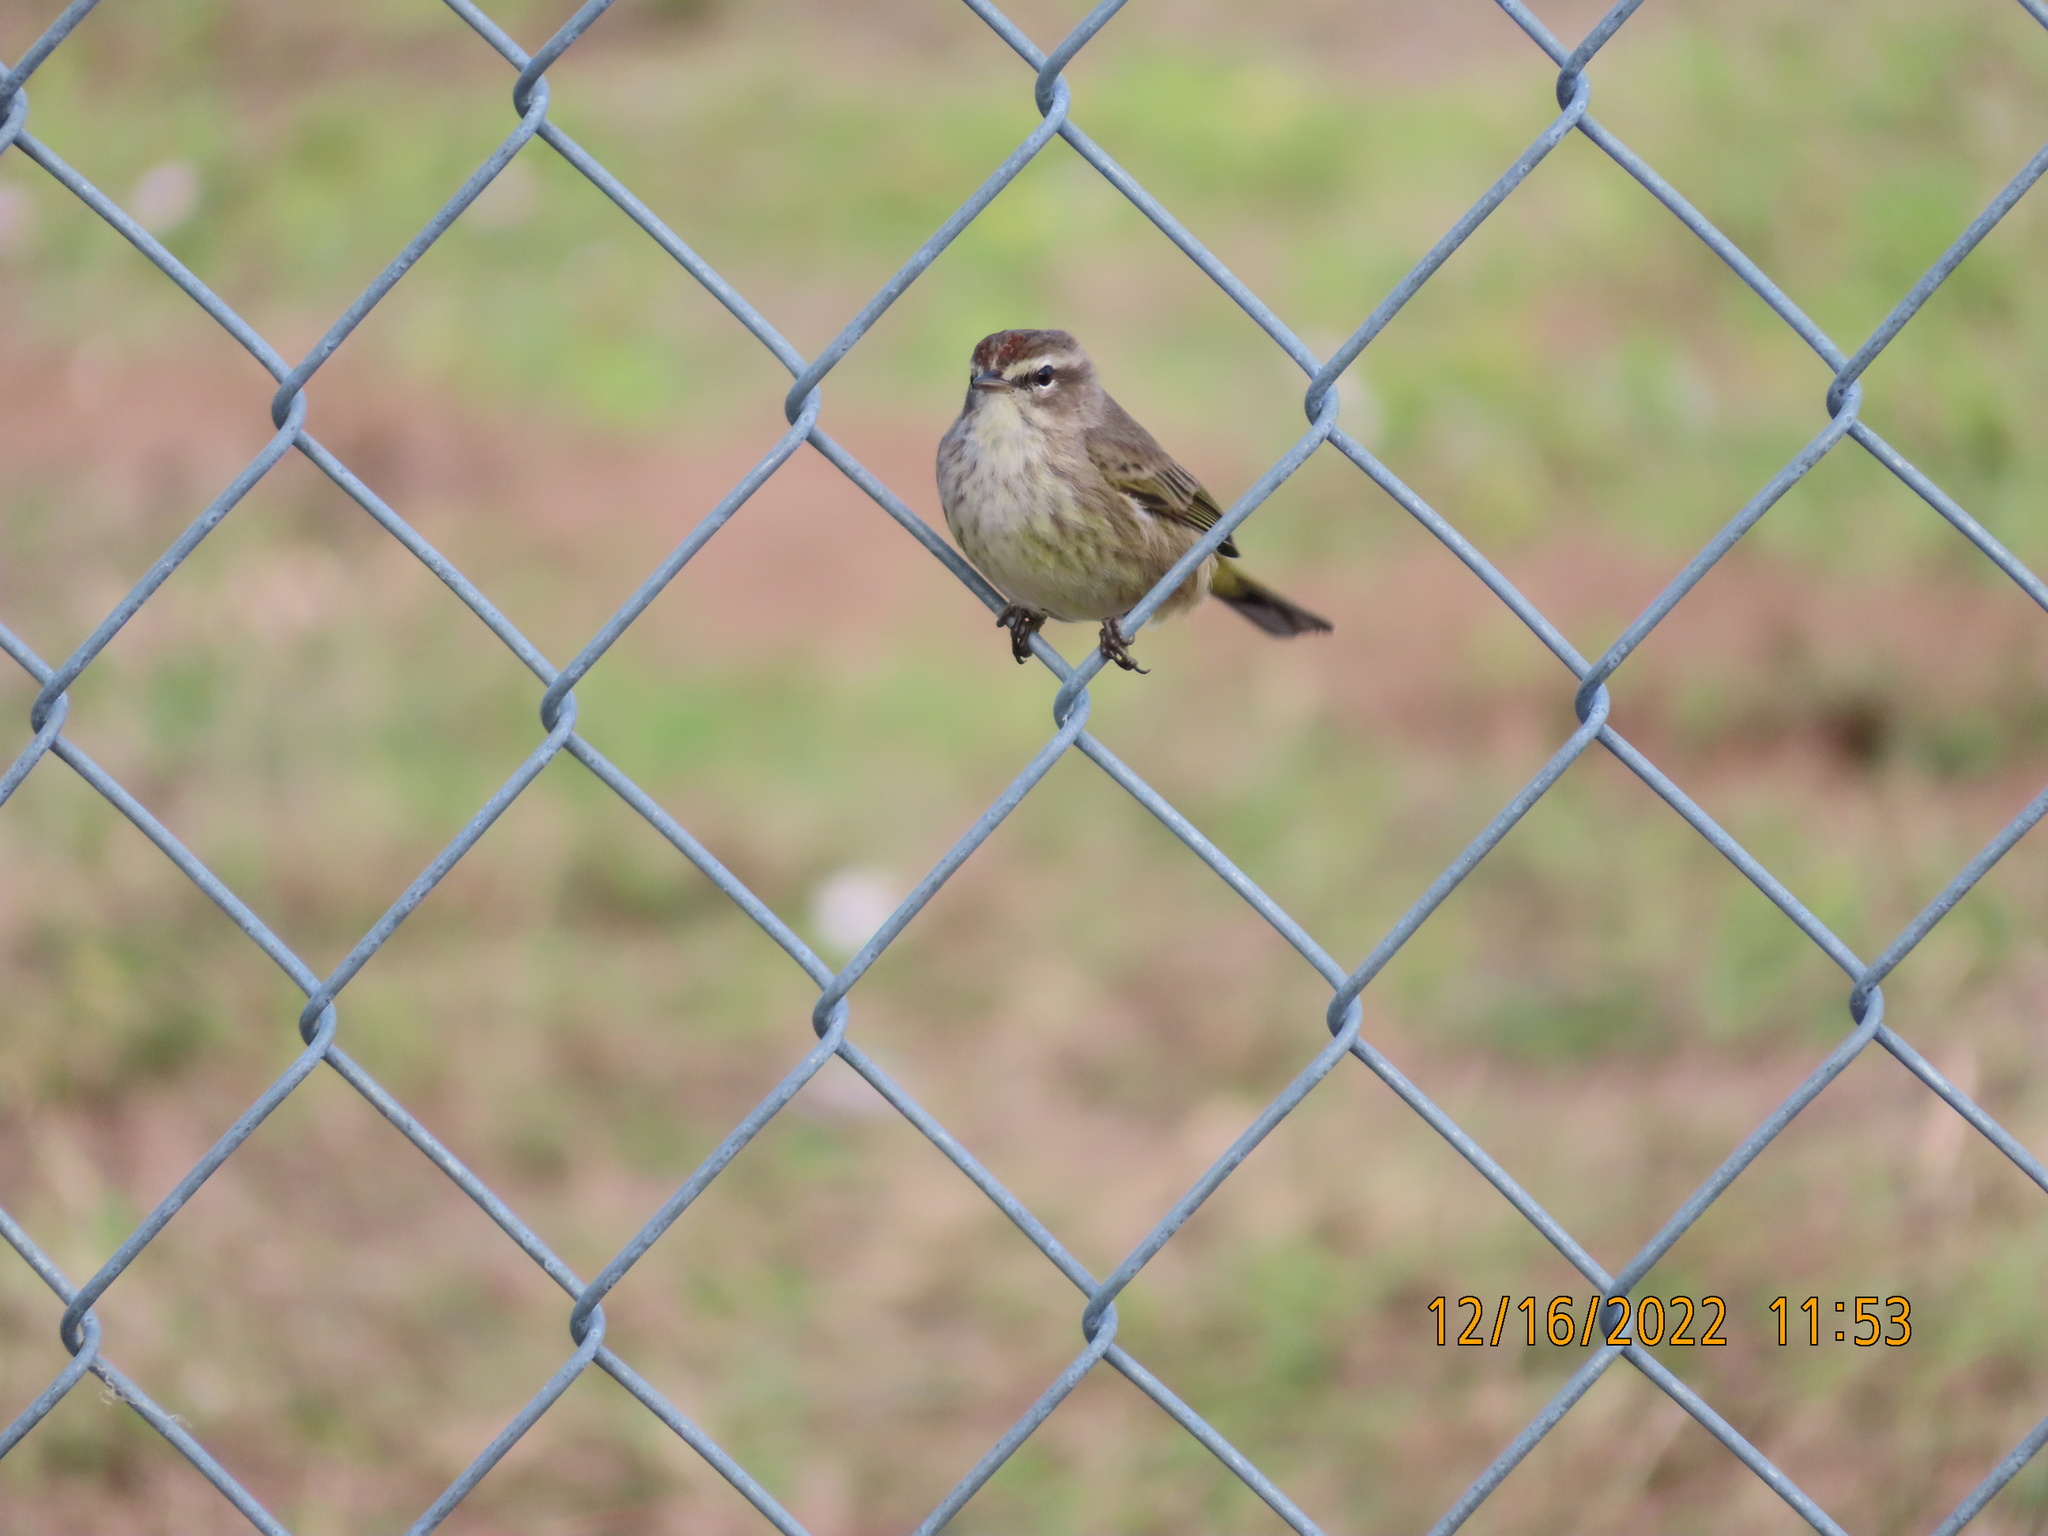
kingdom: Animalia
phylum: Chordata
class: Aves
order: Passeriformes
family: Parulidae
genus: Setophaga
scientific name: Setophaga palmarum
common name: Palm warbler
